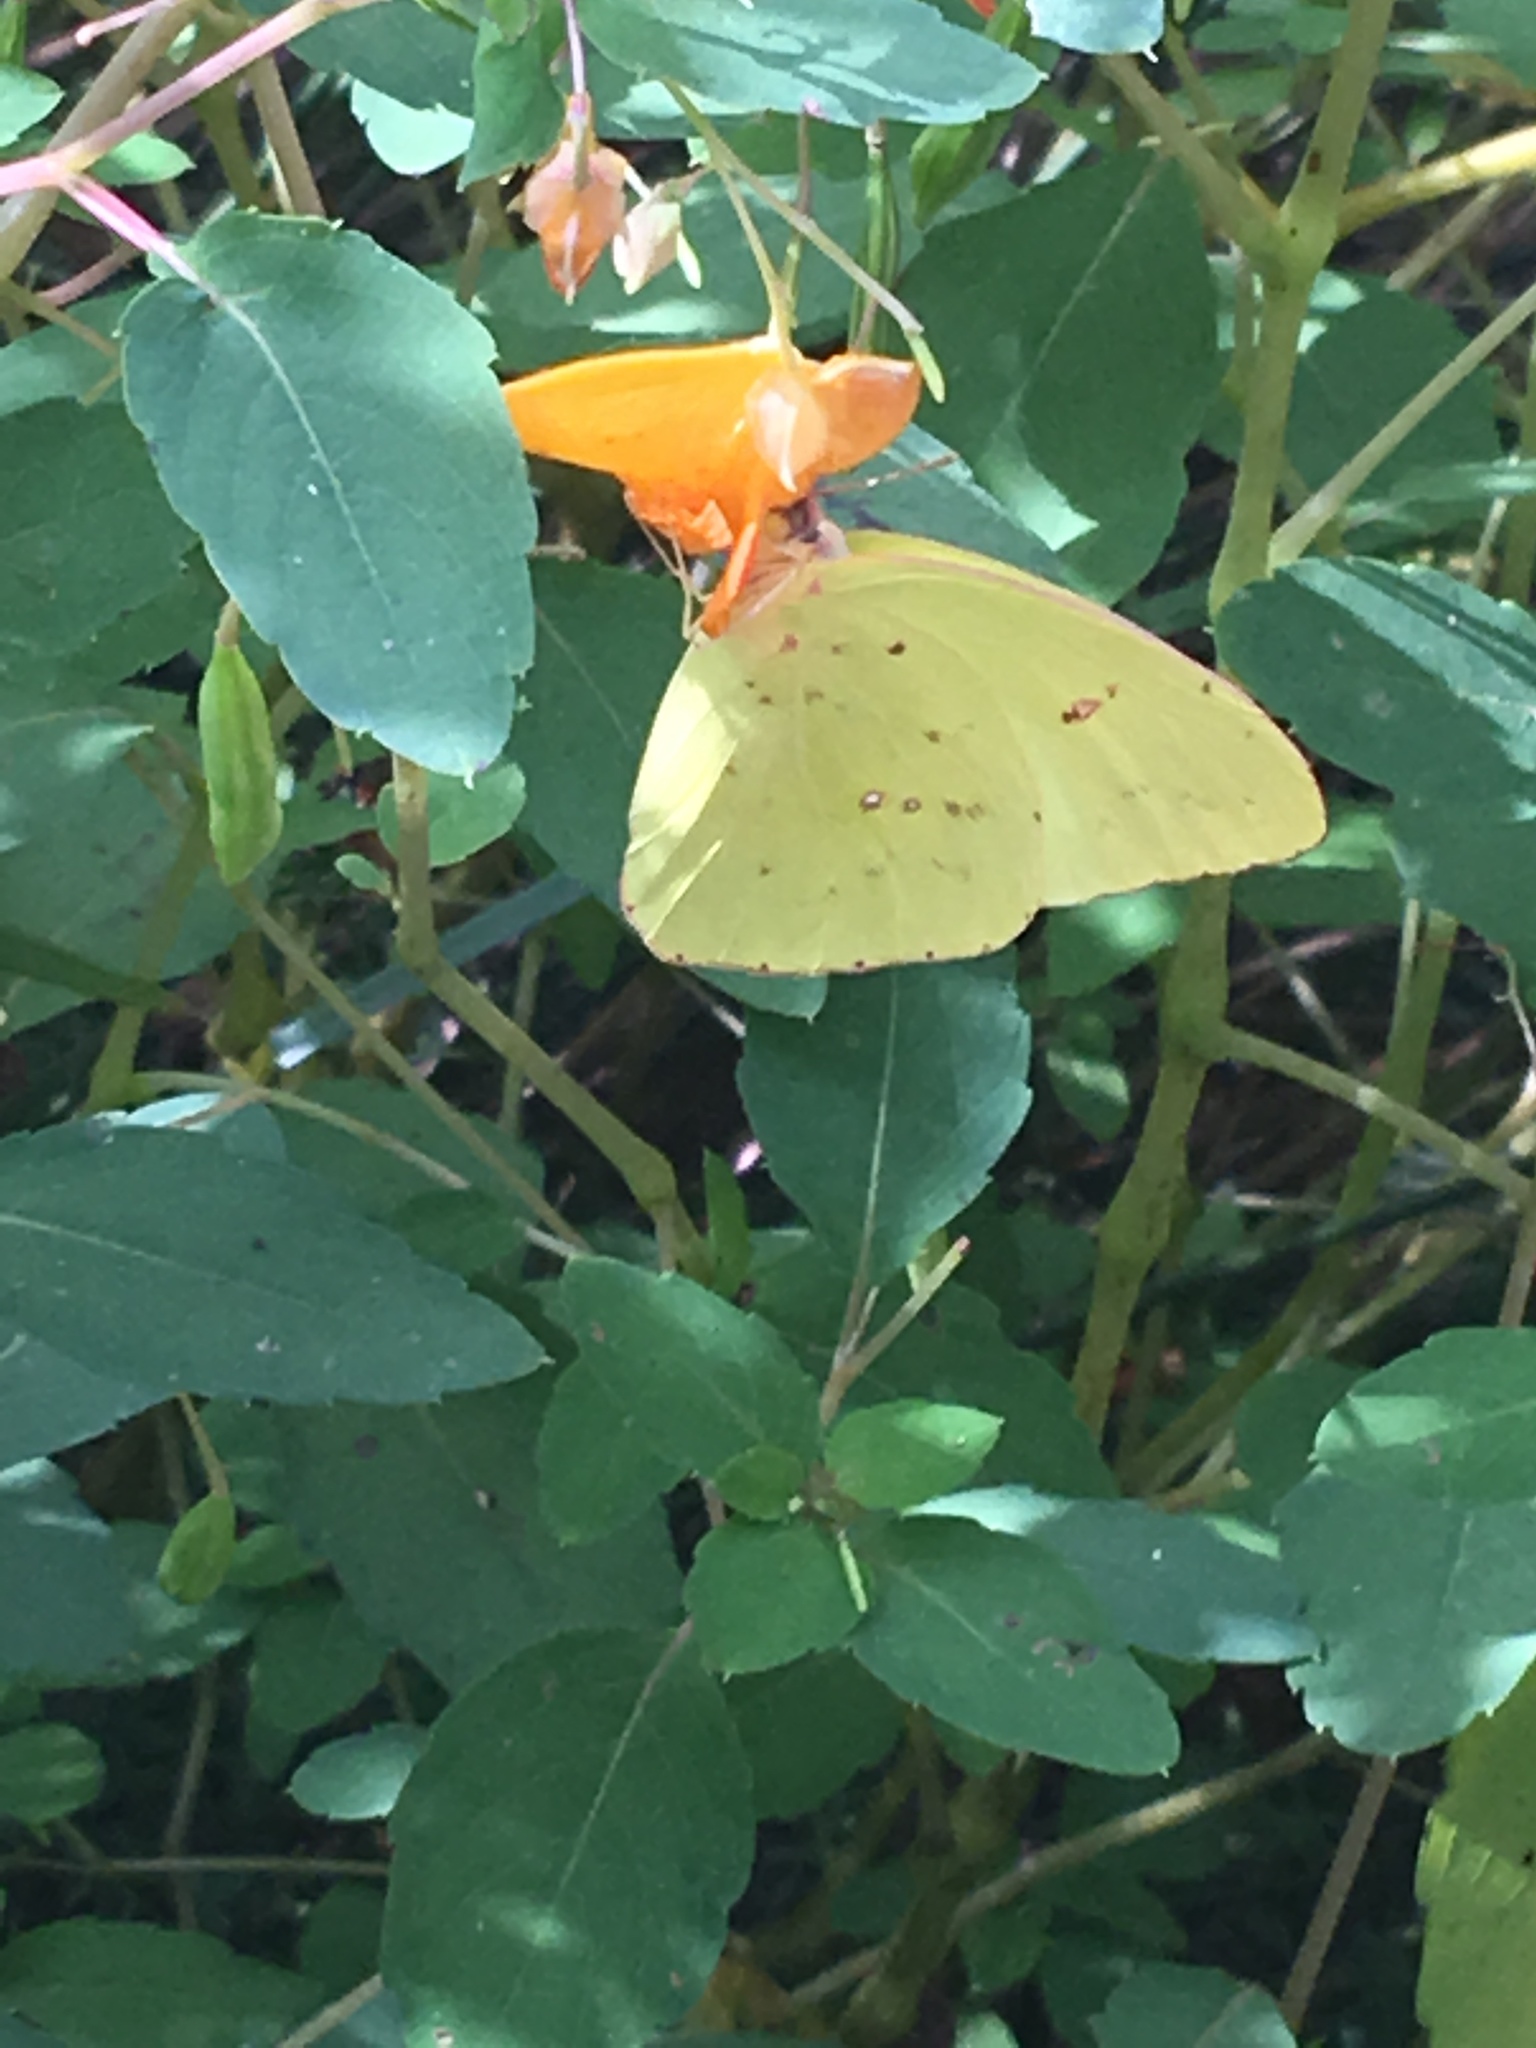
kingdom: Animalia
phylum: Arthropoda
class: Insecta
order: Lepidoptera
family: Pieridae
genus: Phoebis
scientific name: Phoebis sennae
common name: Cloudless sulphur
